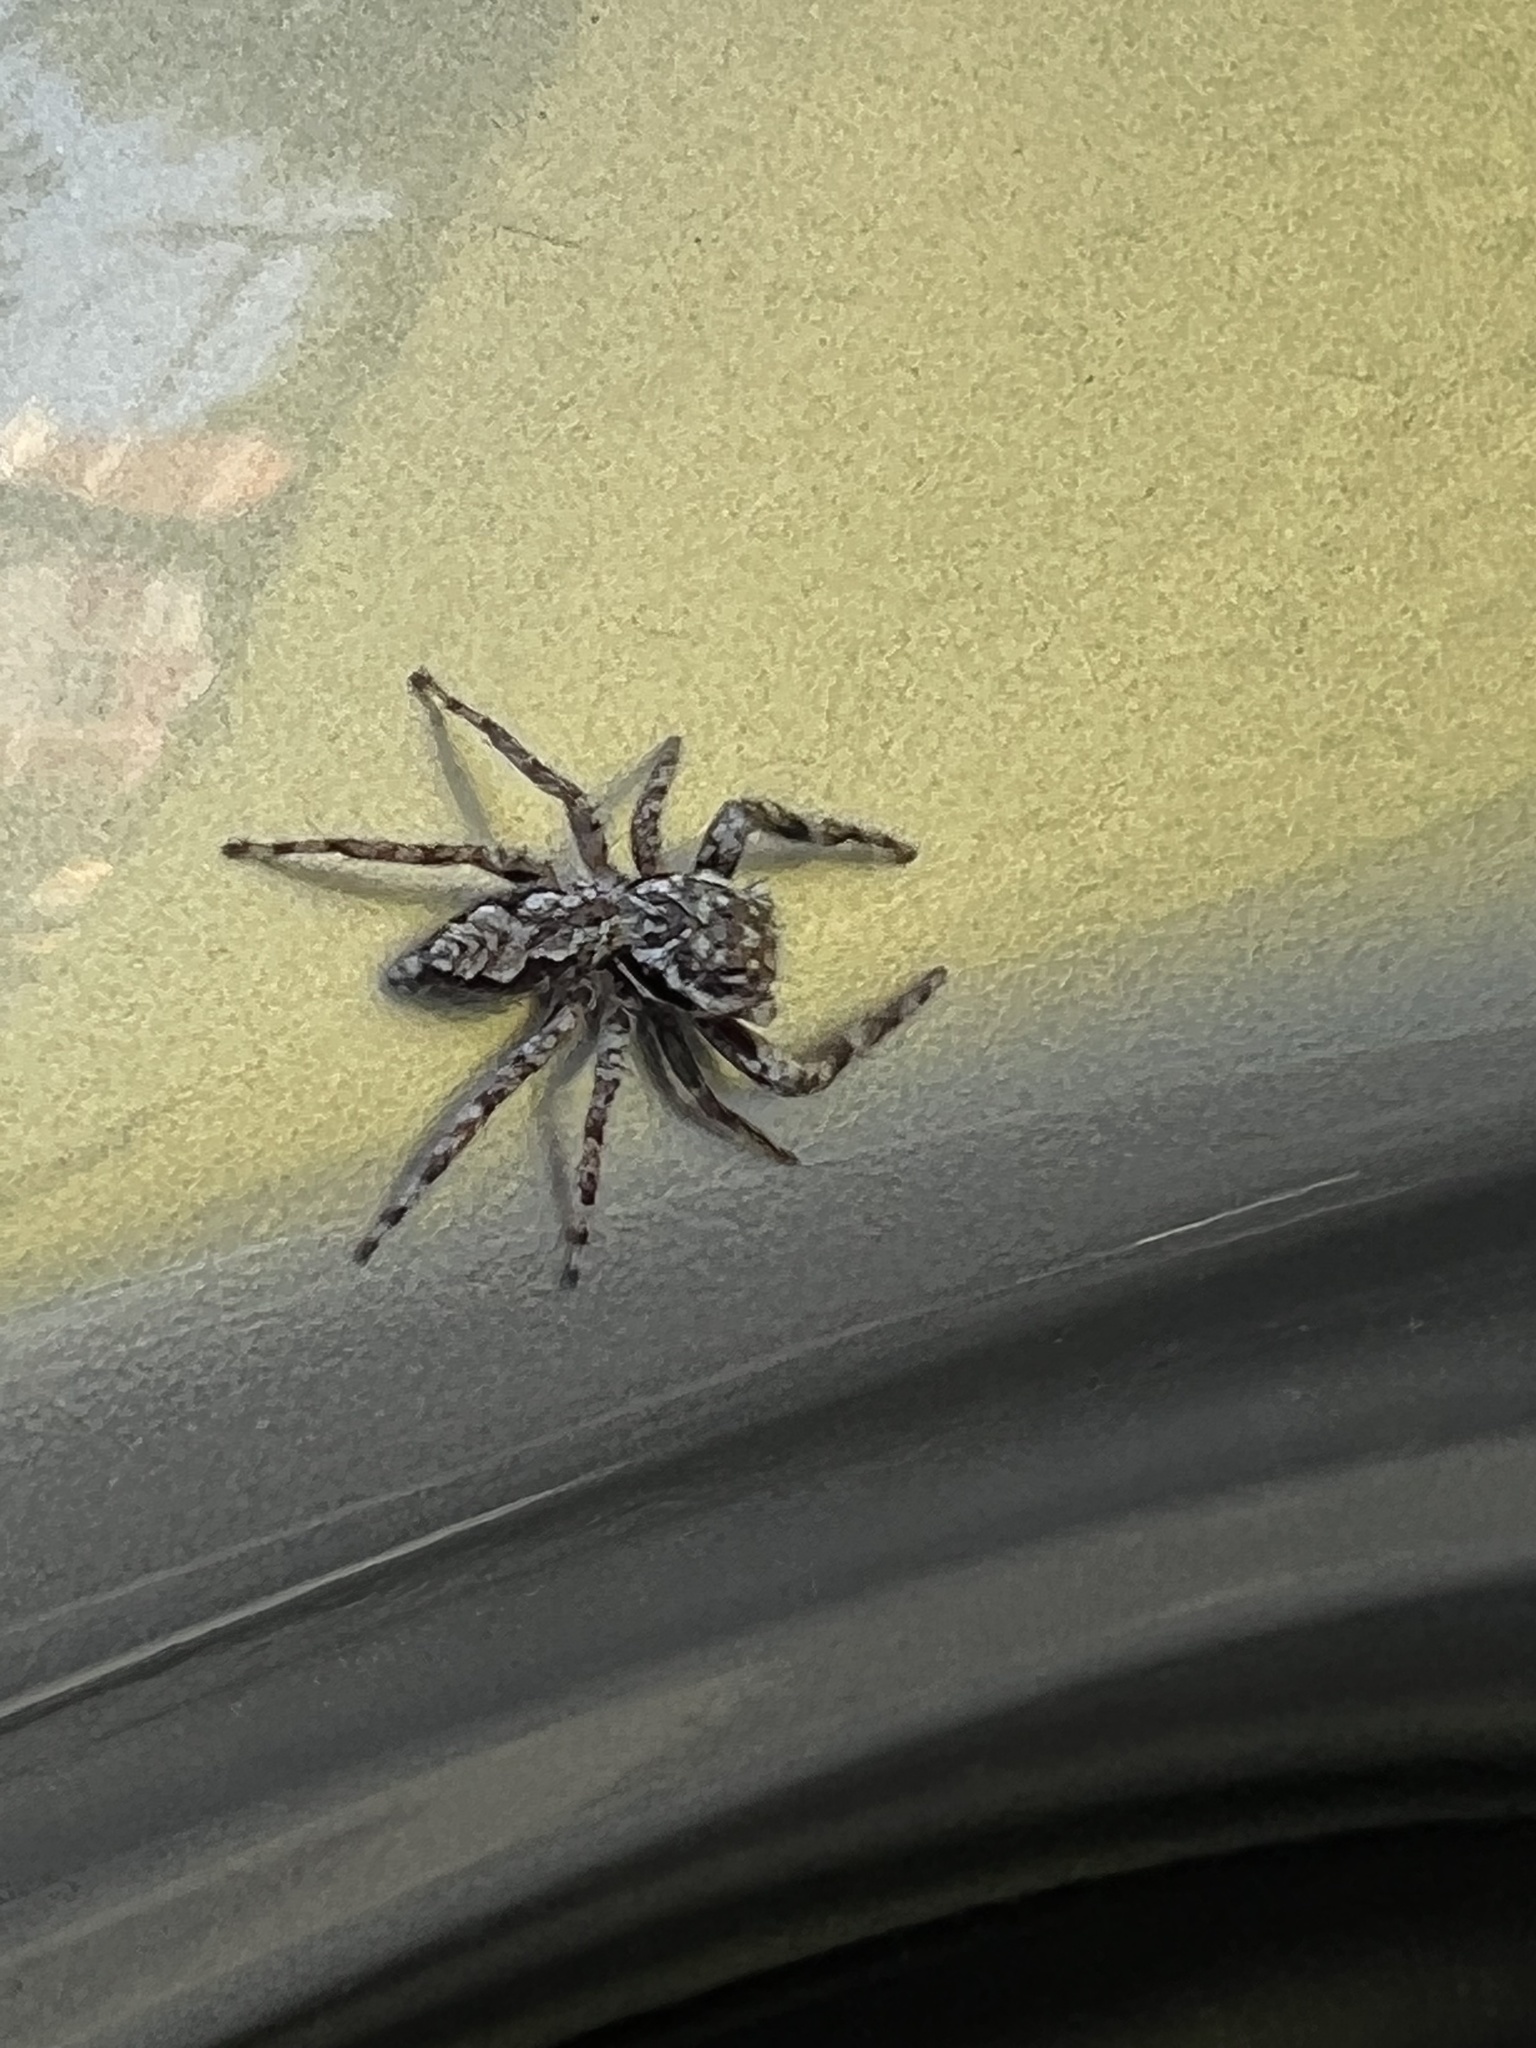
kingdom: Animalia
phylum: Arthropoda
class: Arachnida
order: Araneae
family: Salticidae
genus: Platycryptus
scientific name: Platycryptus undatus
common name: Tan jumping spider
